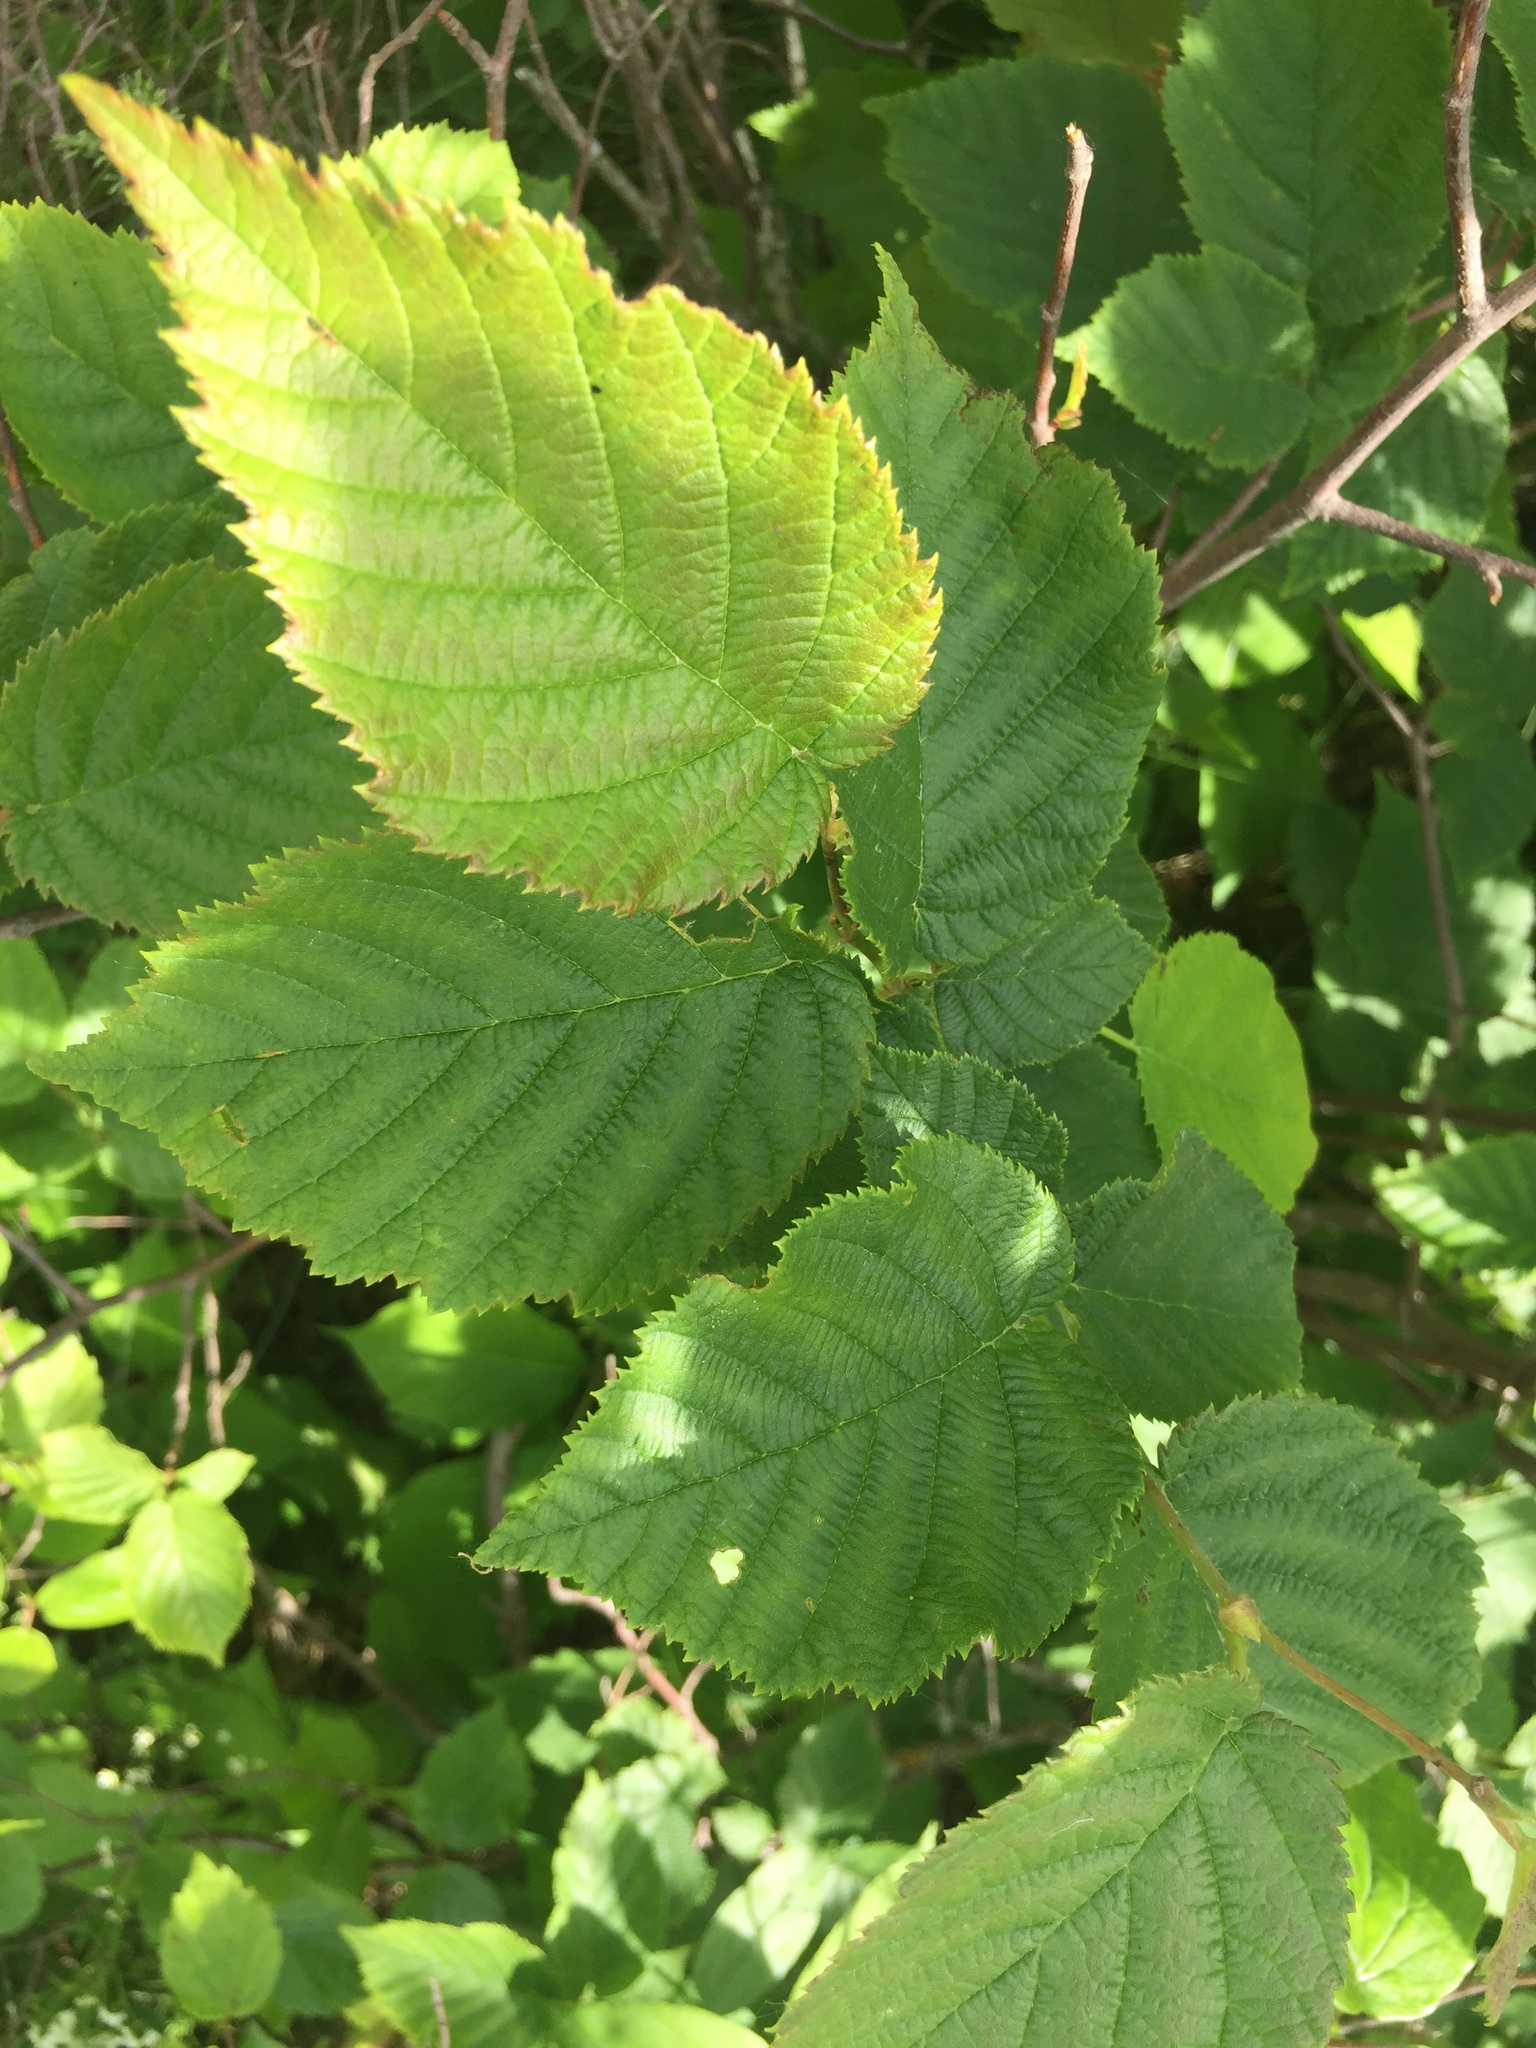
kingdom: Plantae
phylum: Tracheophyta
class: Magnoliopsida
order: Fagales
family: Betulaceae
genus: Corylus
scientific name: Corylus cornuta
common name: Beaked hazel
